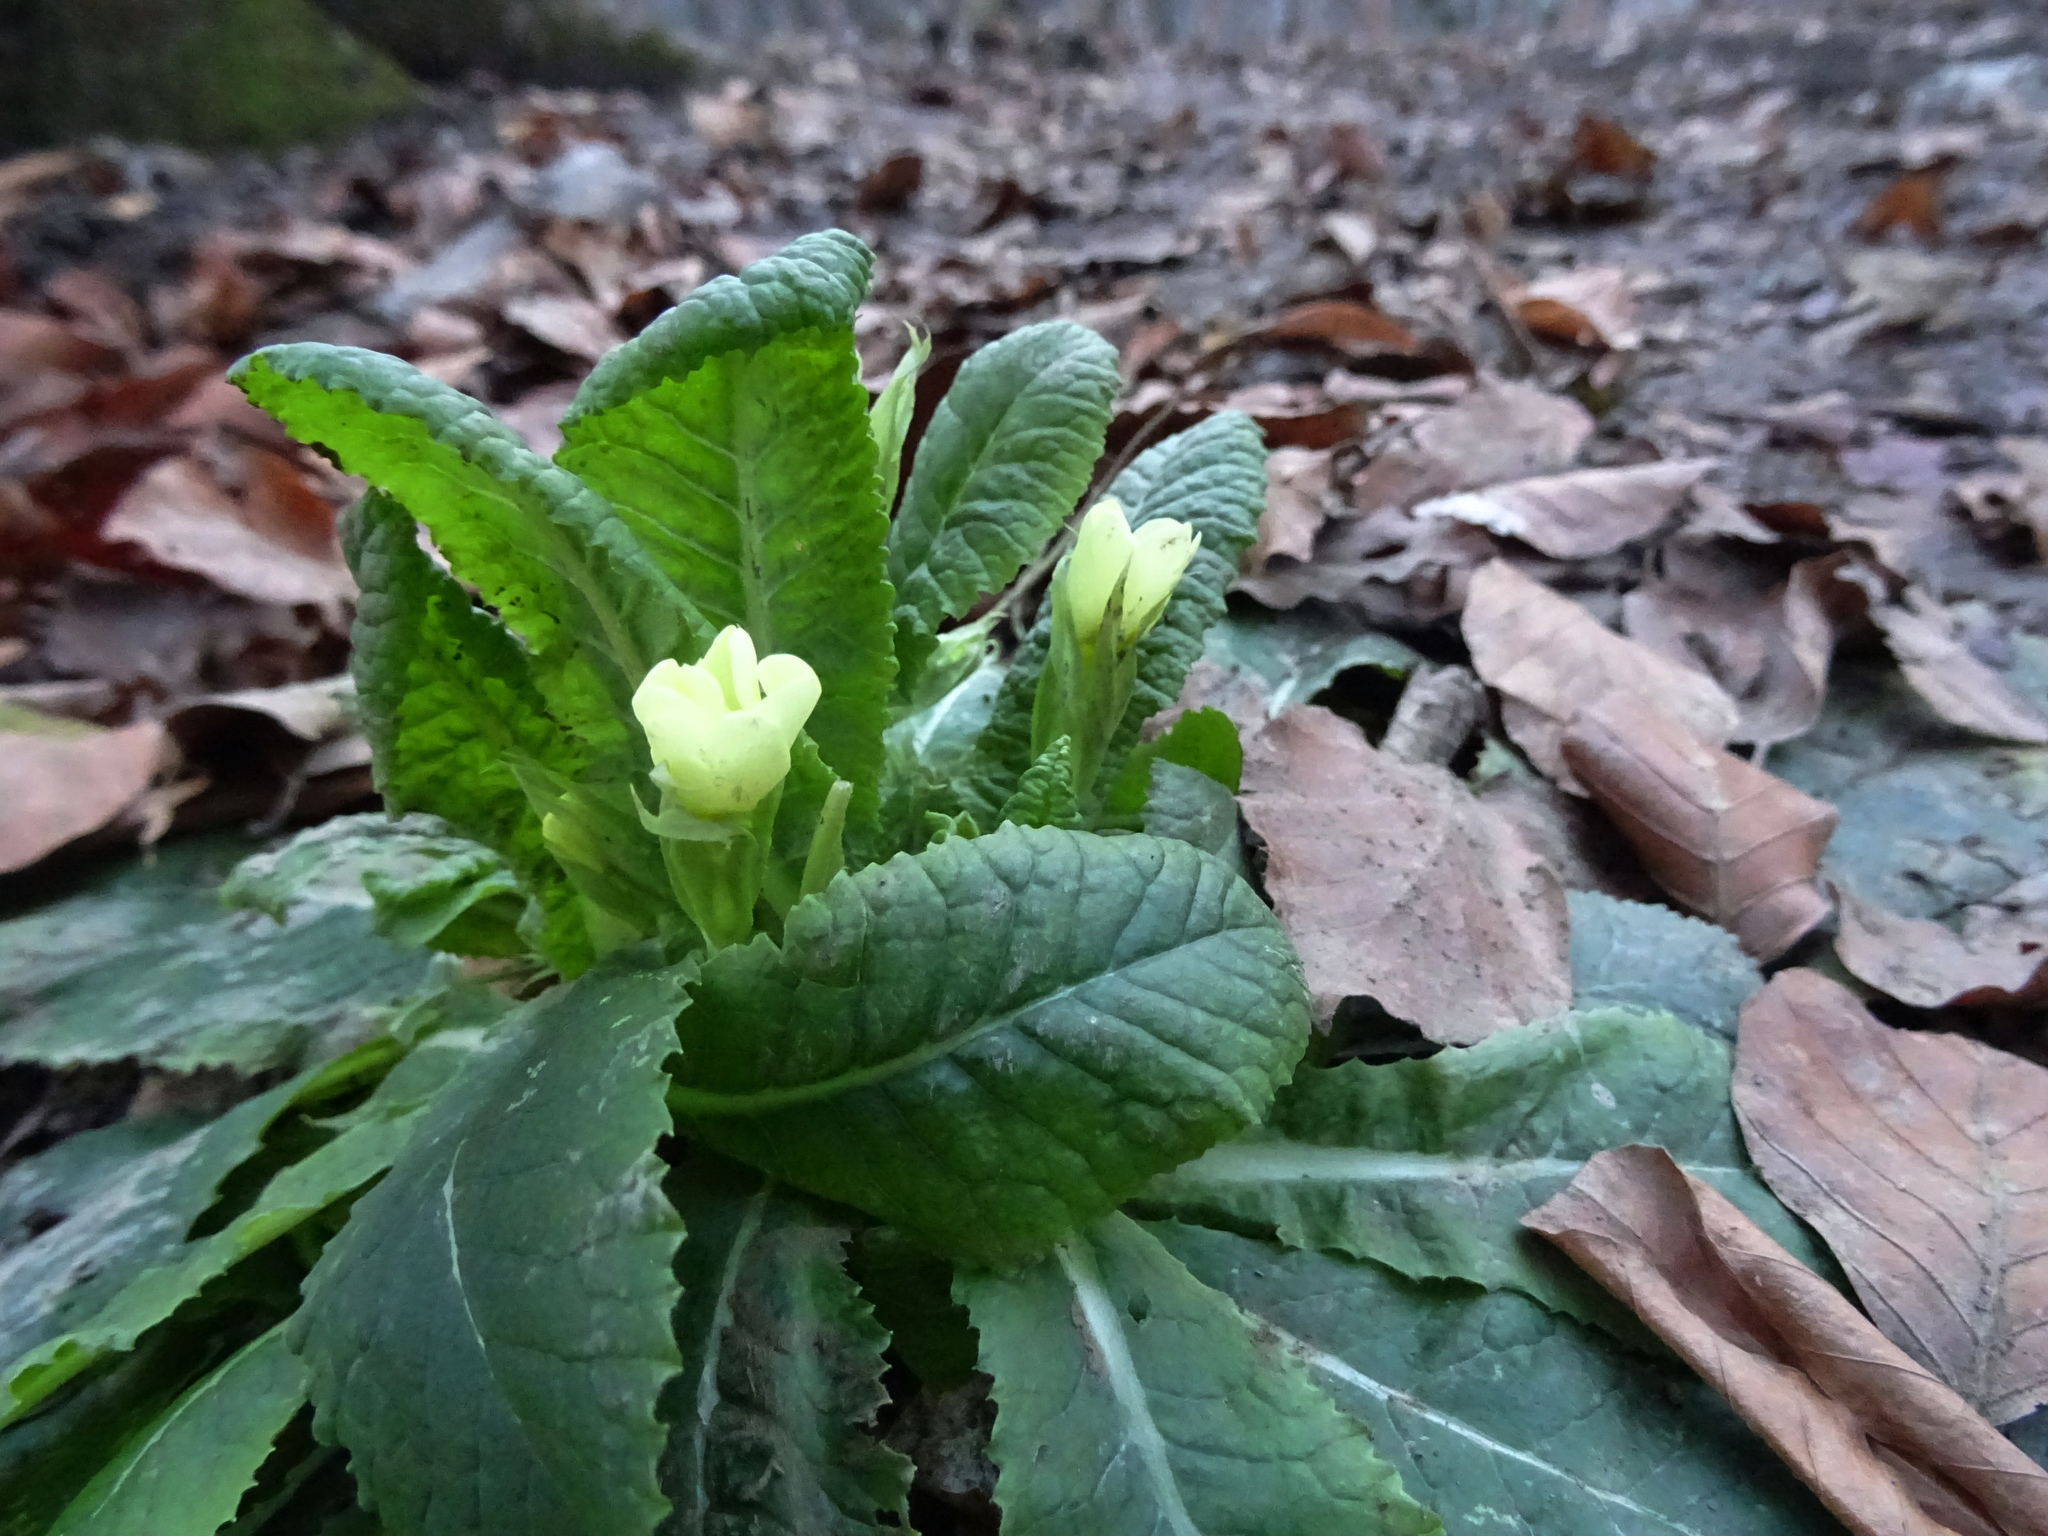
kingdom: Plantae
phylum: Tracheophyta
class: Magnoliopsida
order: Ericales
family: Primulaceae
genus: Primula
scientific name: Primula vulgaris
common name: Primrose
